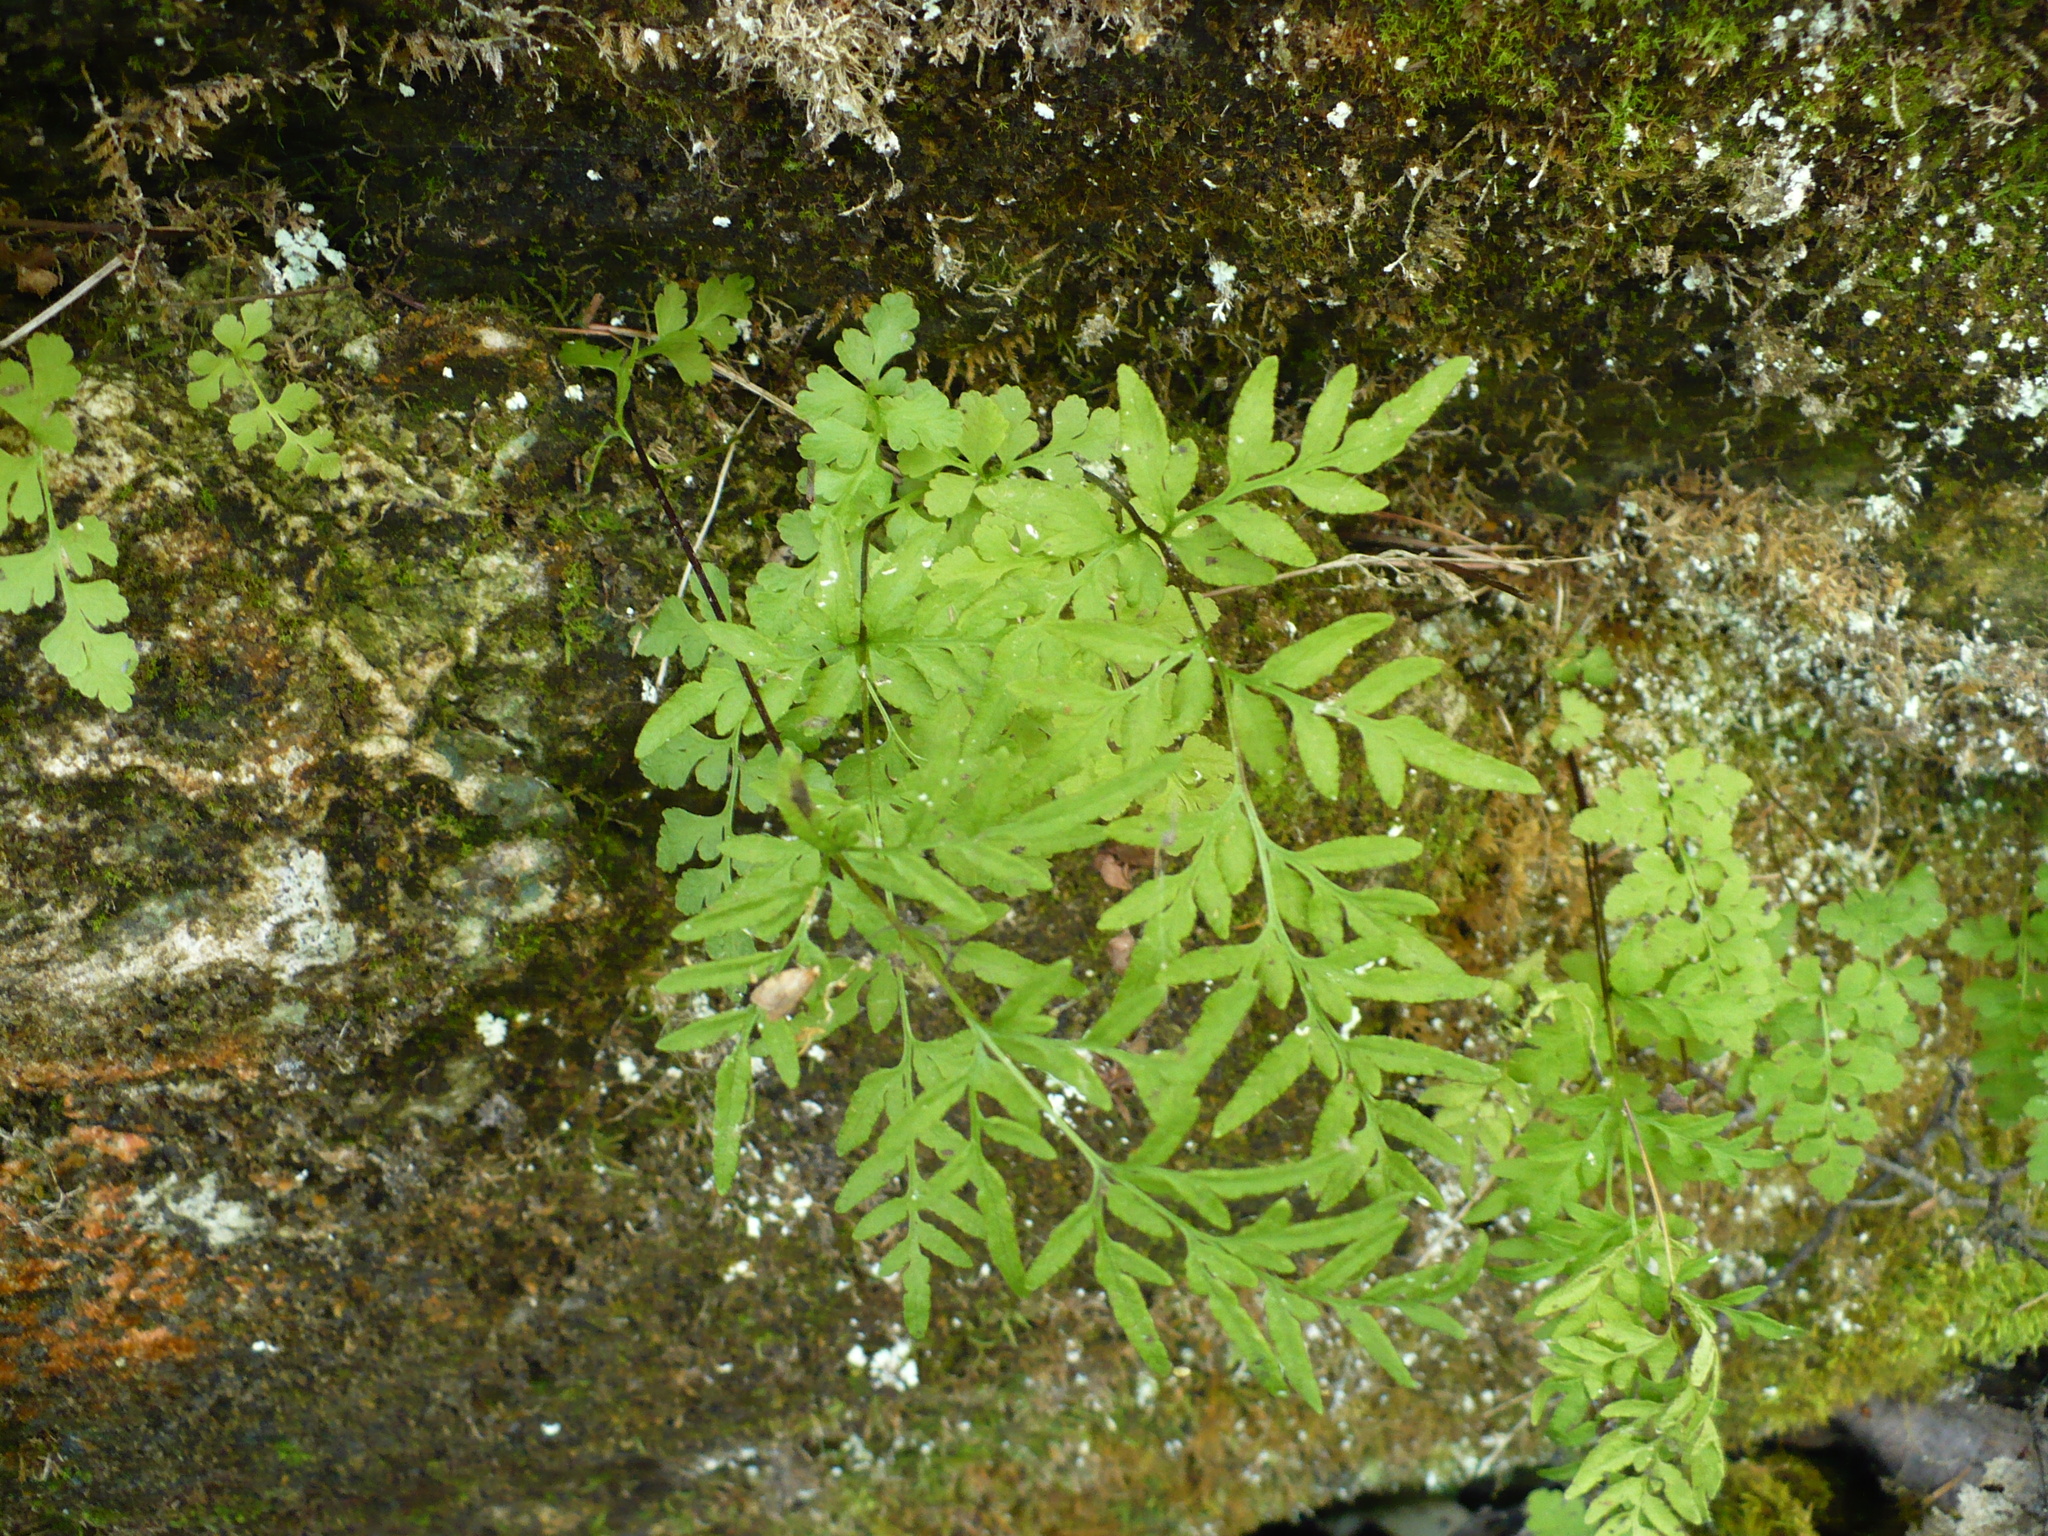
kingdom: Plantae
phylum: Tracheophyta
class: Polypodiopsida
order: Polypodiales
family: Pteridaceae
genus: Cryptogramma
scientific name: Cryptogramma stelleri
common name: Cliff-brake
